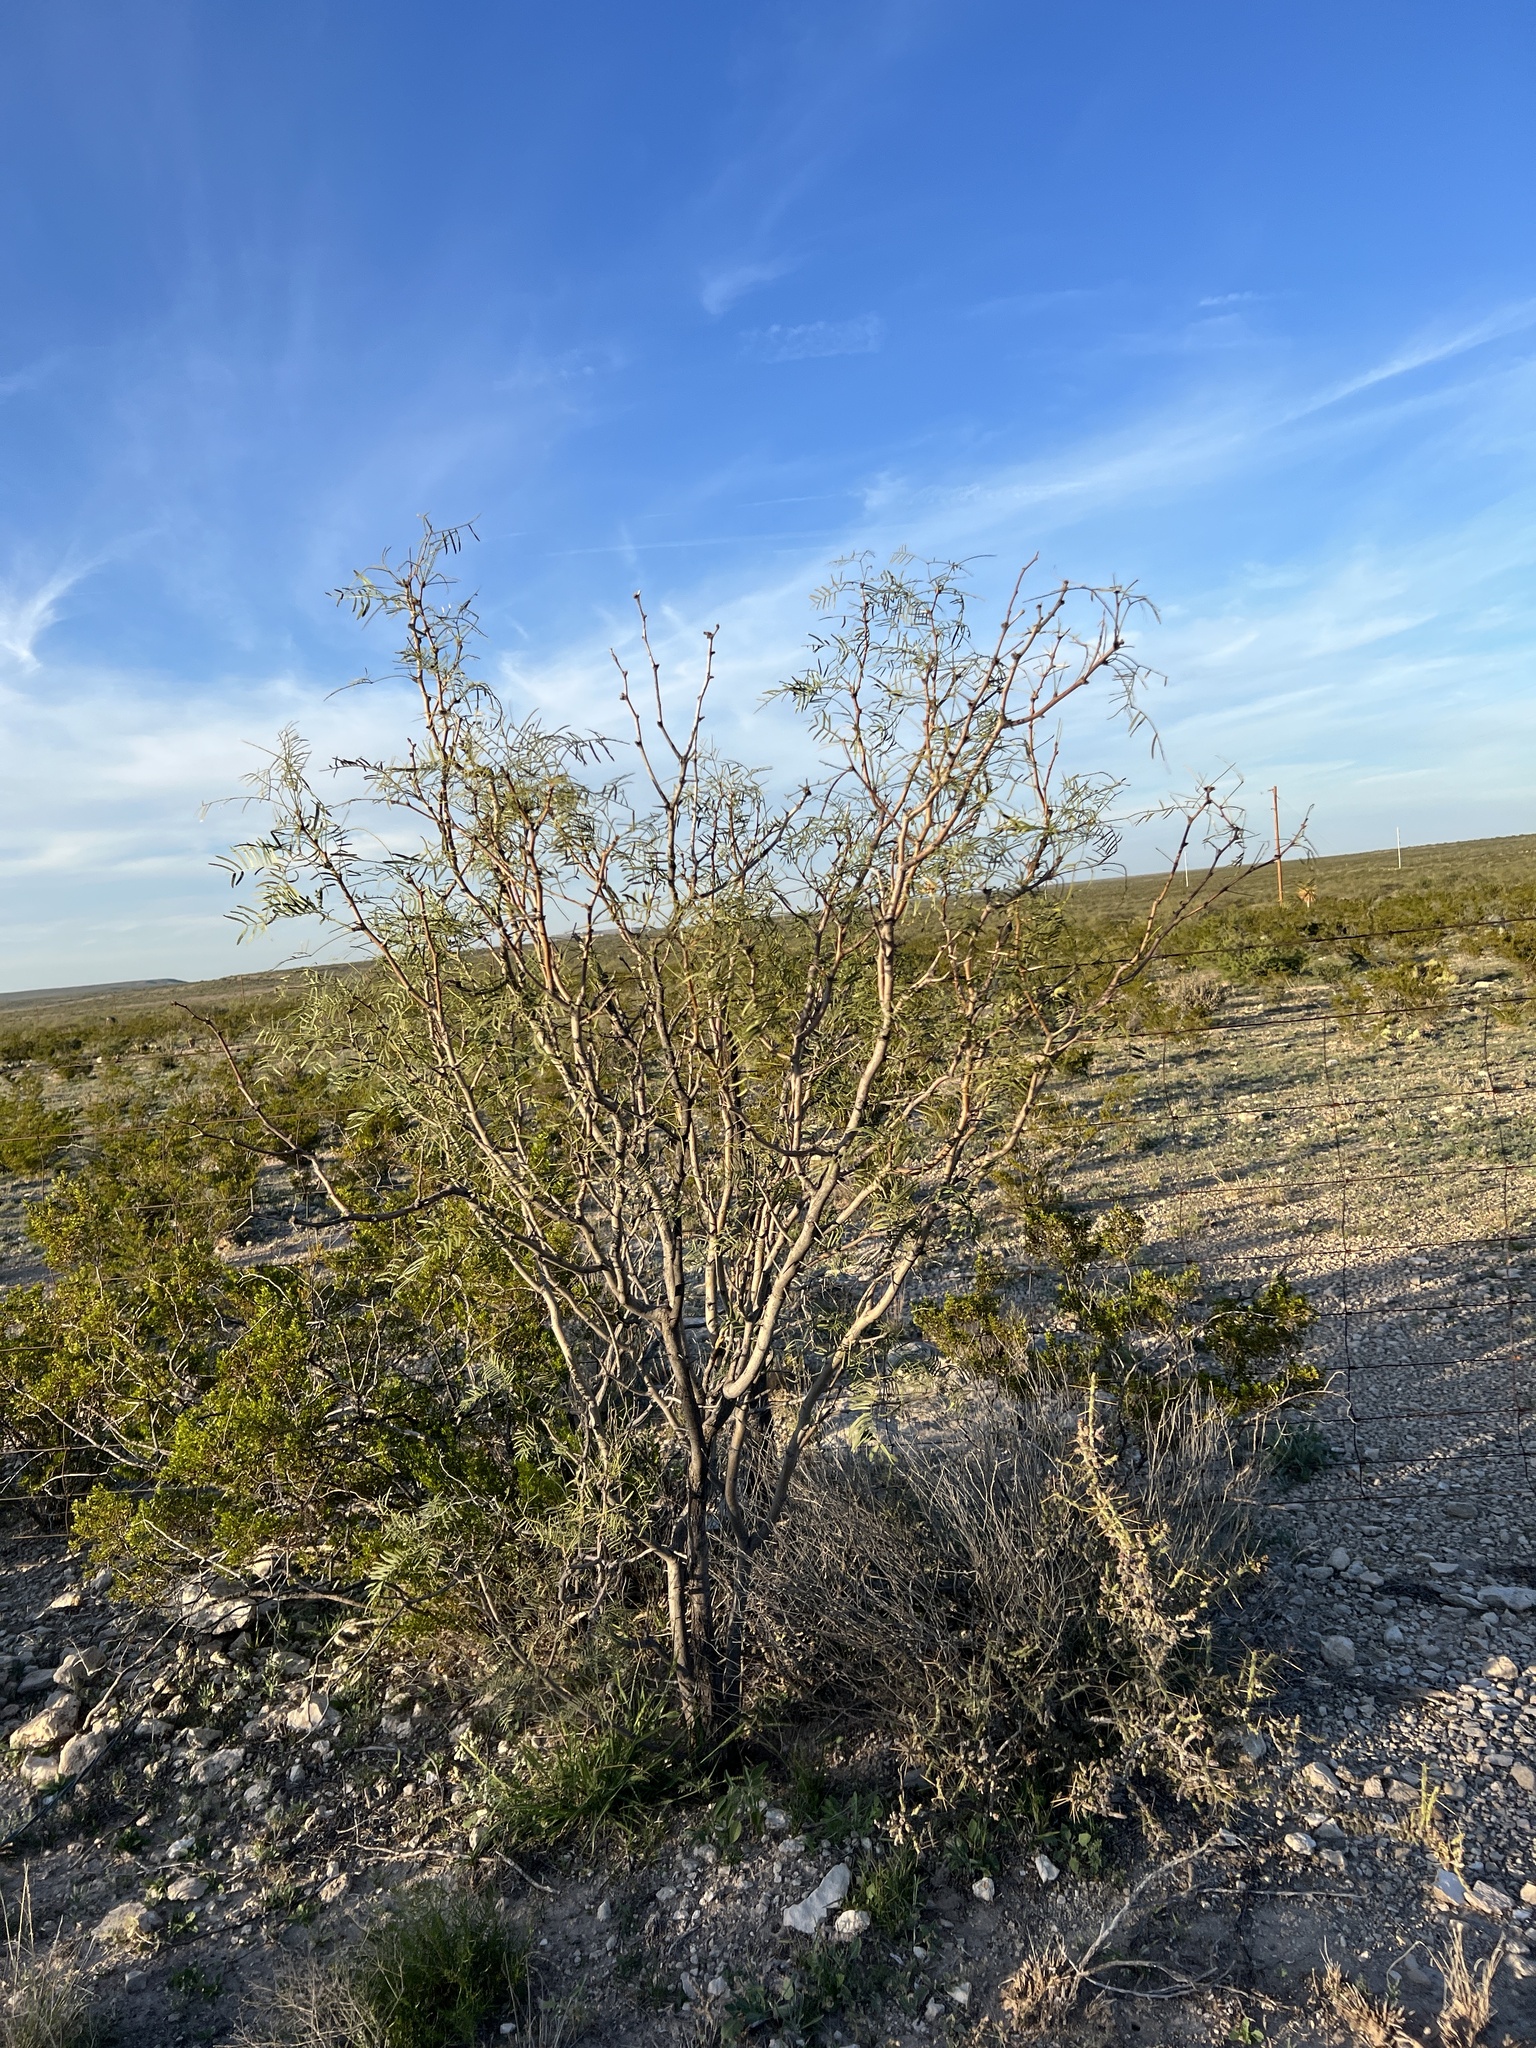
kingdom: Plantae
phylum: Tracheophyta
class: Magnoliopsida
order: Fabales
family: Fabaceae
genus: Prosopis
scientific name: Prosopis glandulosa
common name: Honey mesquite
